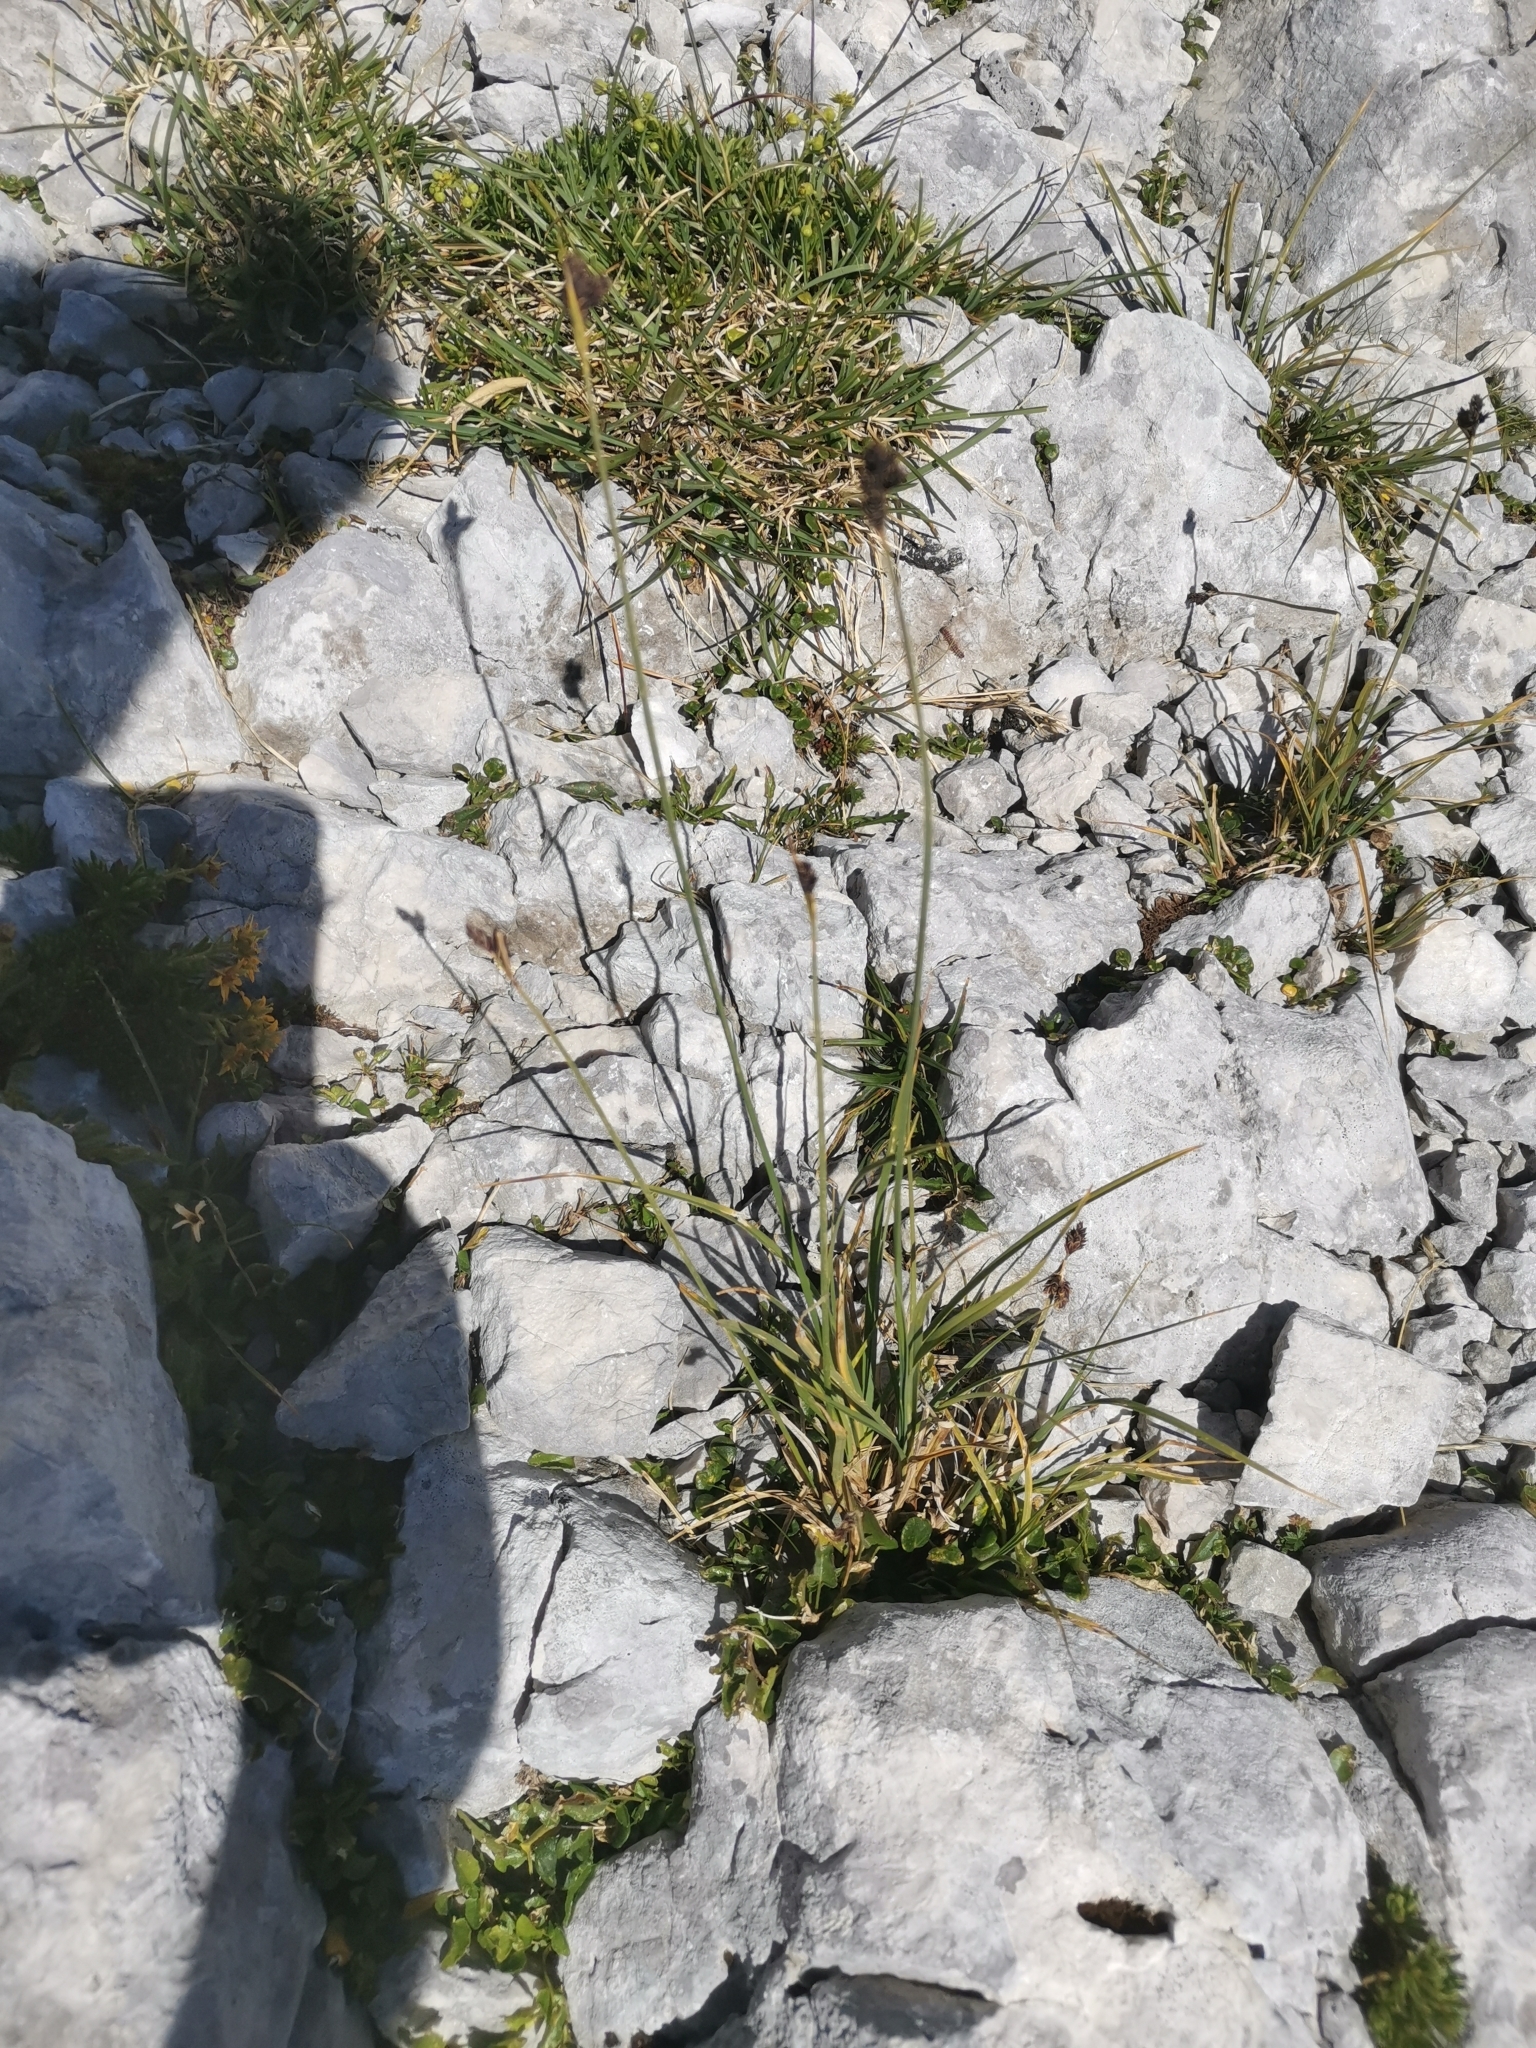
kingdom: Plantae
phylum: Tracheophyta
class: Liliopsida
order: Poales
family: Cyperaceae
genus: Carex
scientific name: Carex parviflora
